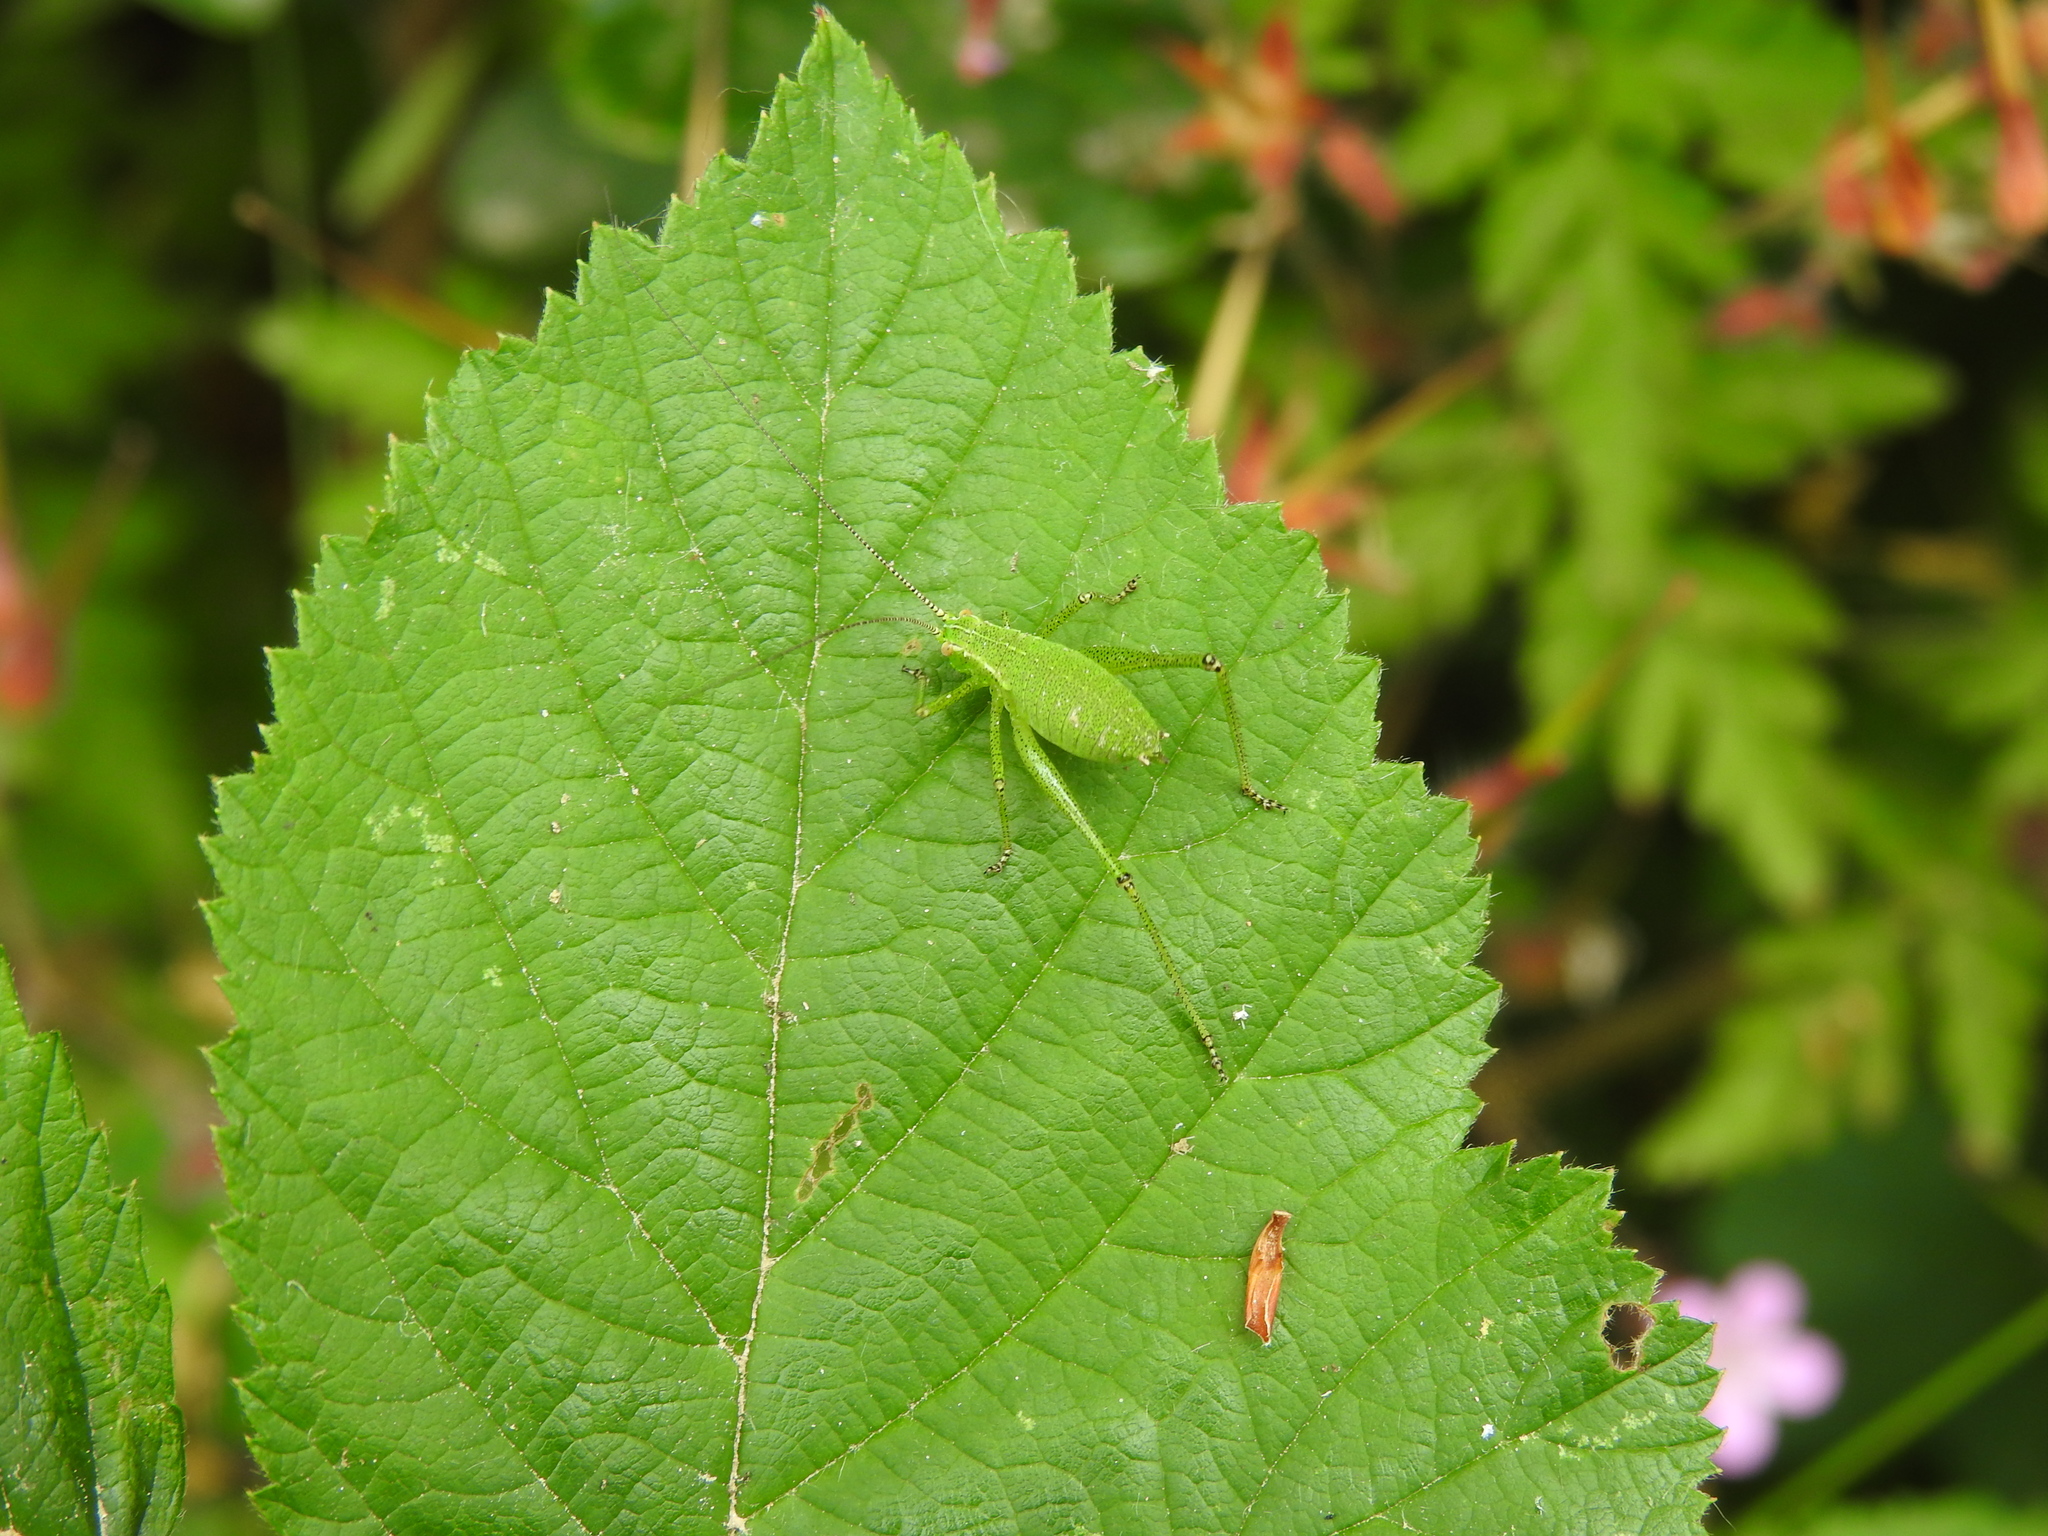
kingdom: Animalia
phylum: Arthropoda
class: Insecta
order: Orthoptera
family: Tettigoniidae
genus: Leptophyes
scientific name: Leptophyes punctatissima
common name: Speckled bush-cricket
